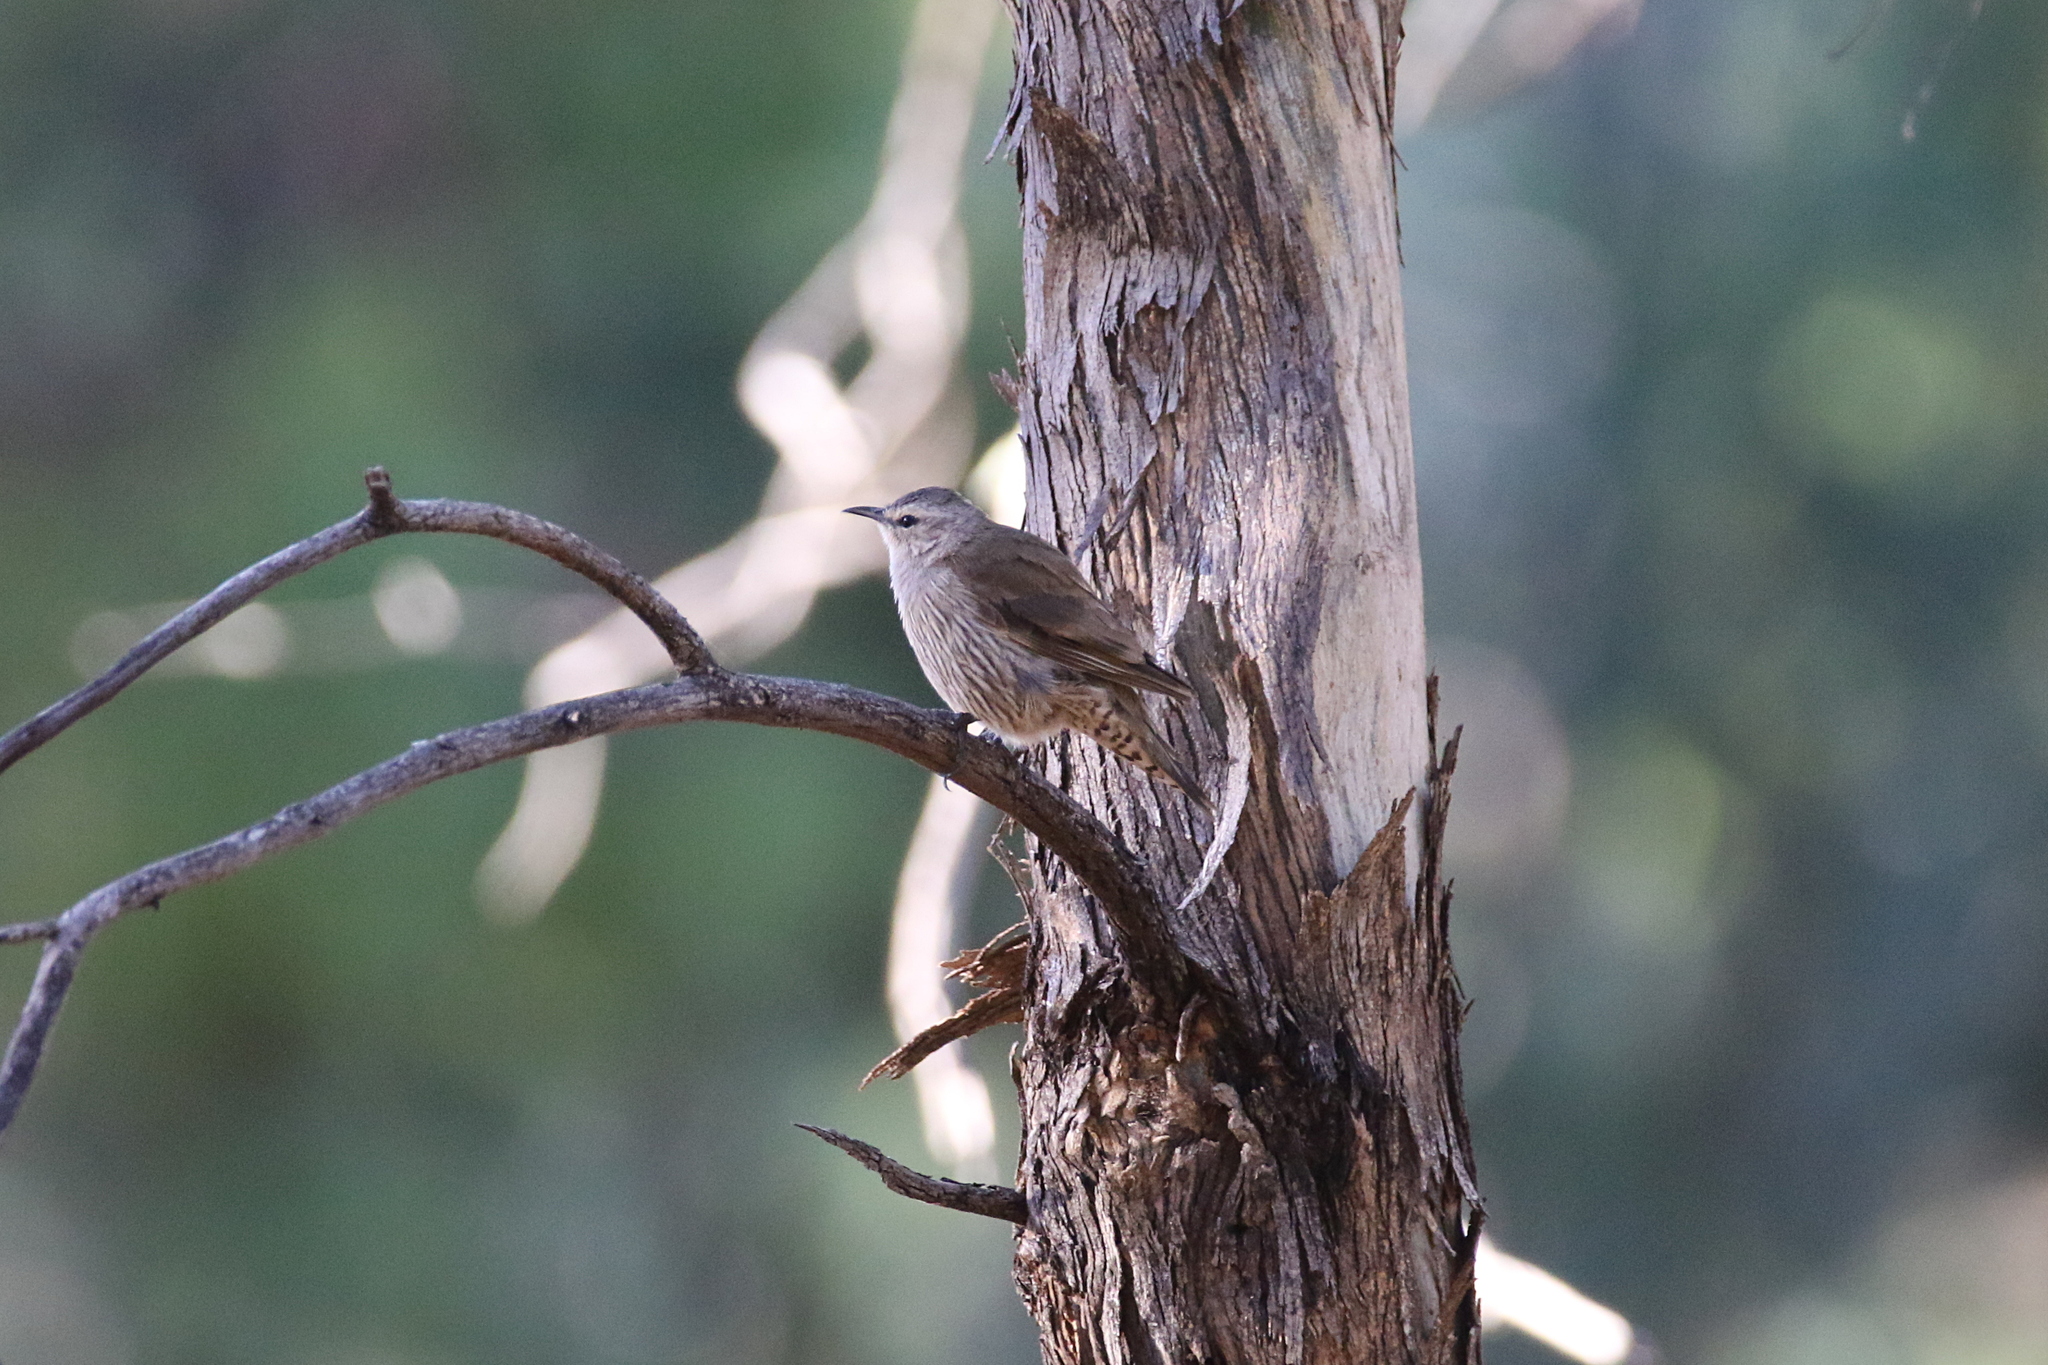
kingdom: Animalia
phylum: Chordata
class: Aves
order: Passeriformes
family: Climacteridae
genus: Climacteris
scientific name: Climacteris picumnus
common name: Brown treecreeper
